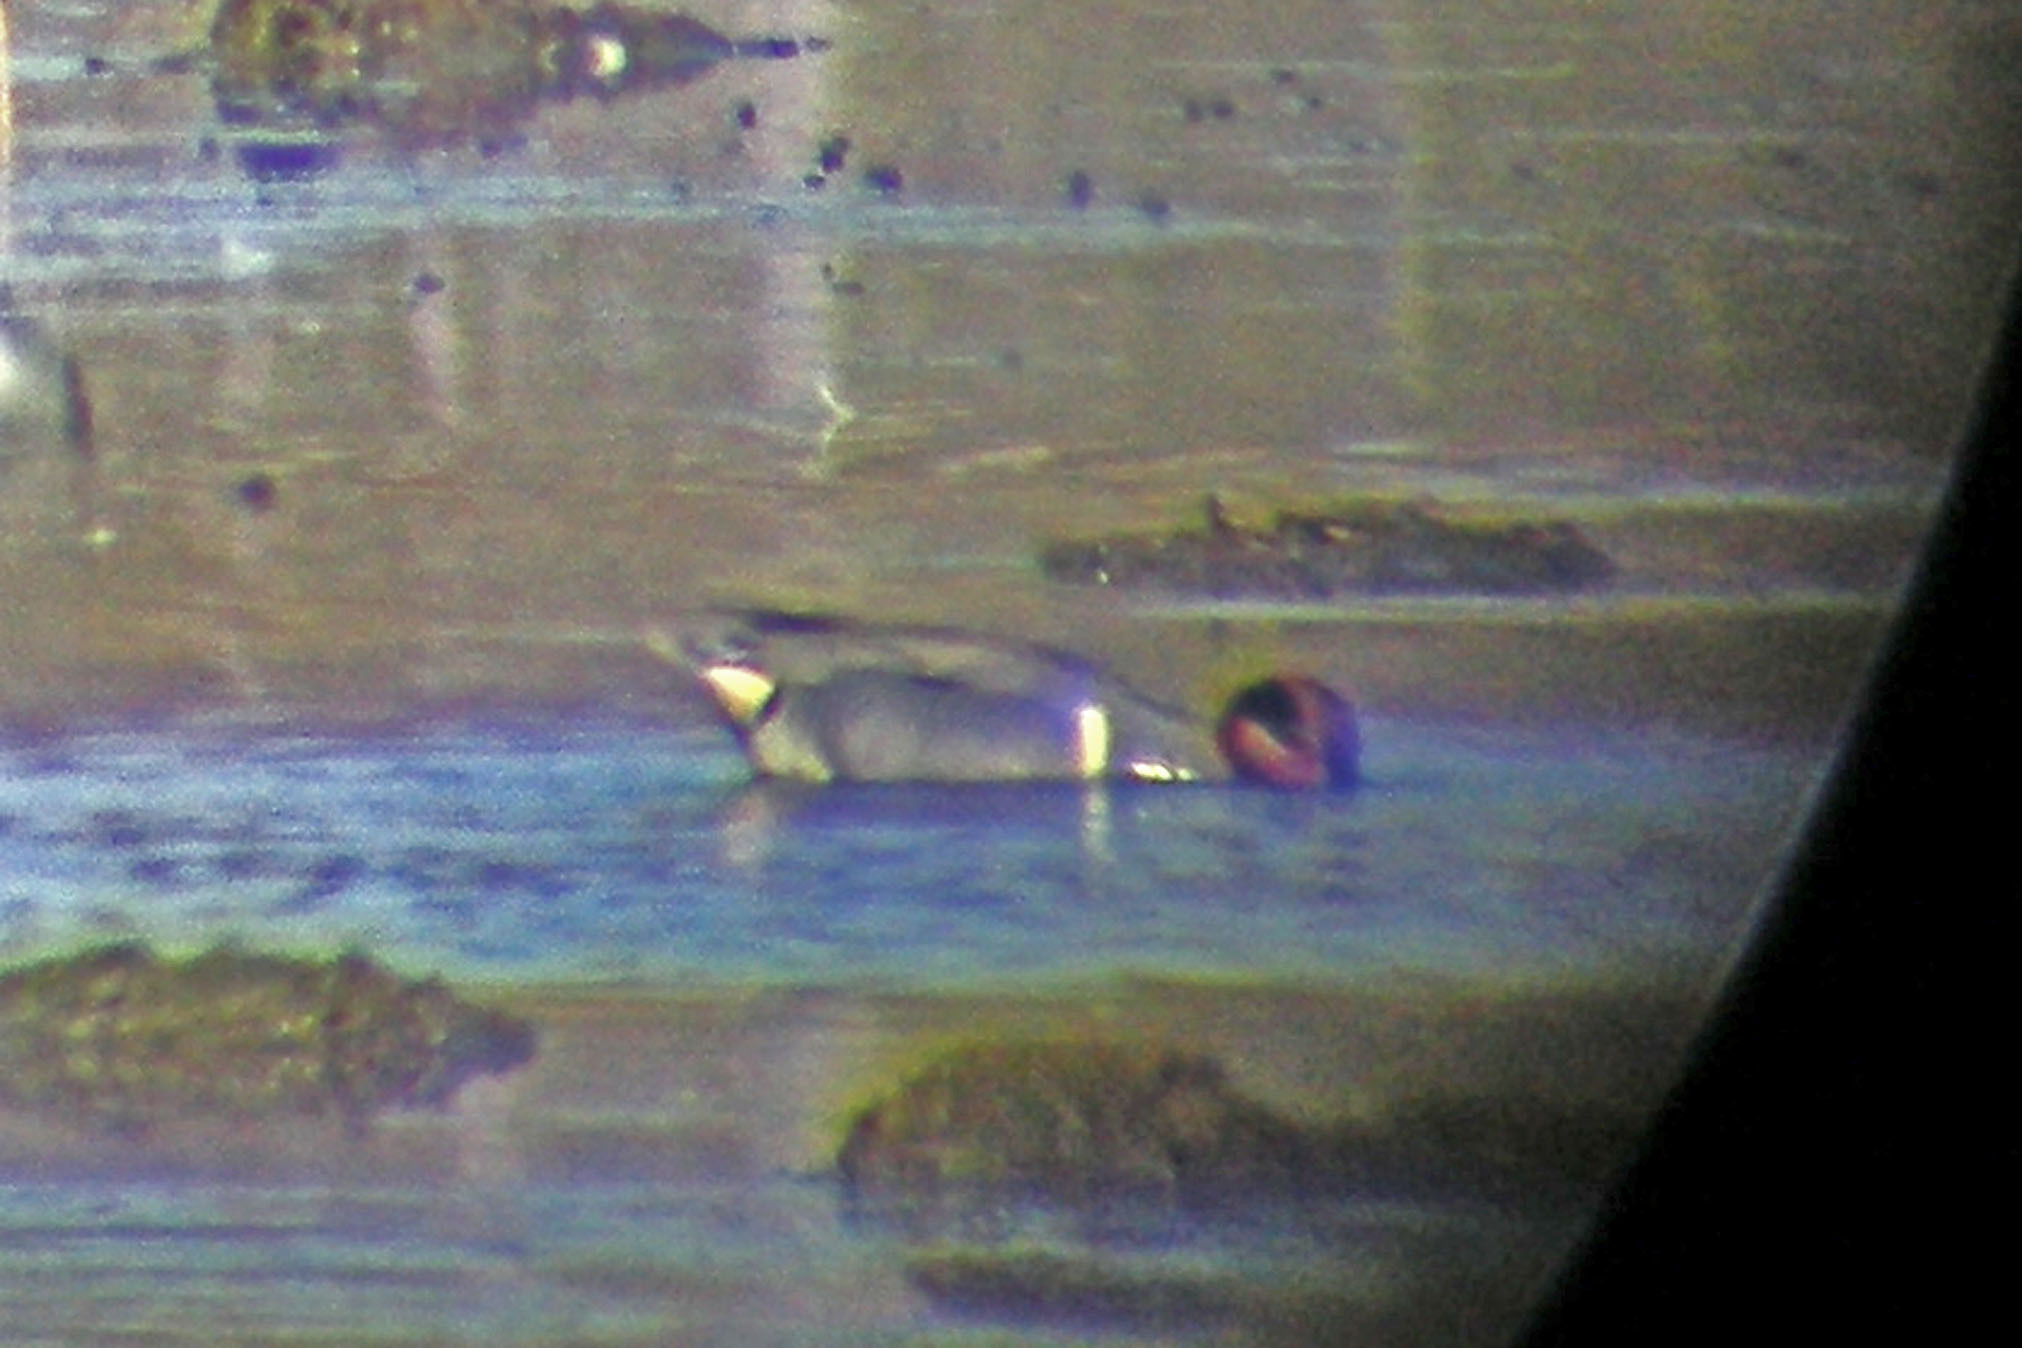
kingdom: Animalia
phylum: Chordata
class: Aves
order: Anseriformes
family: Anatidae
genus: Anas
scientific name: Anas crecca
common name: Eurasian teal
